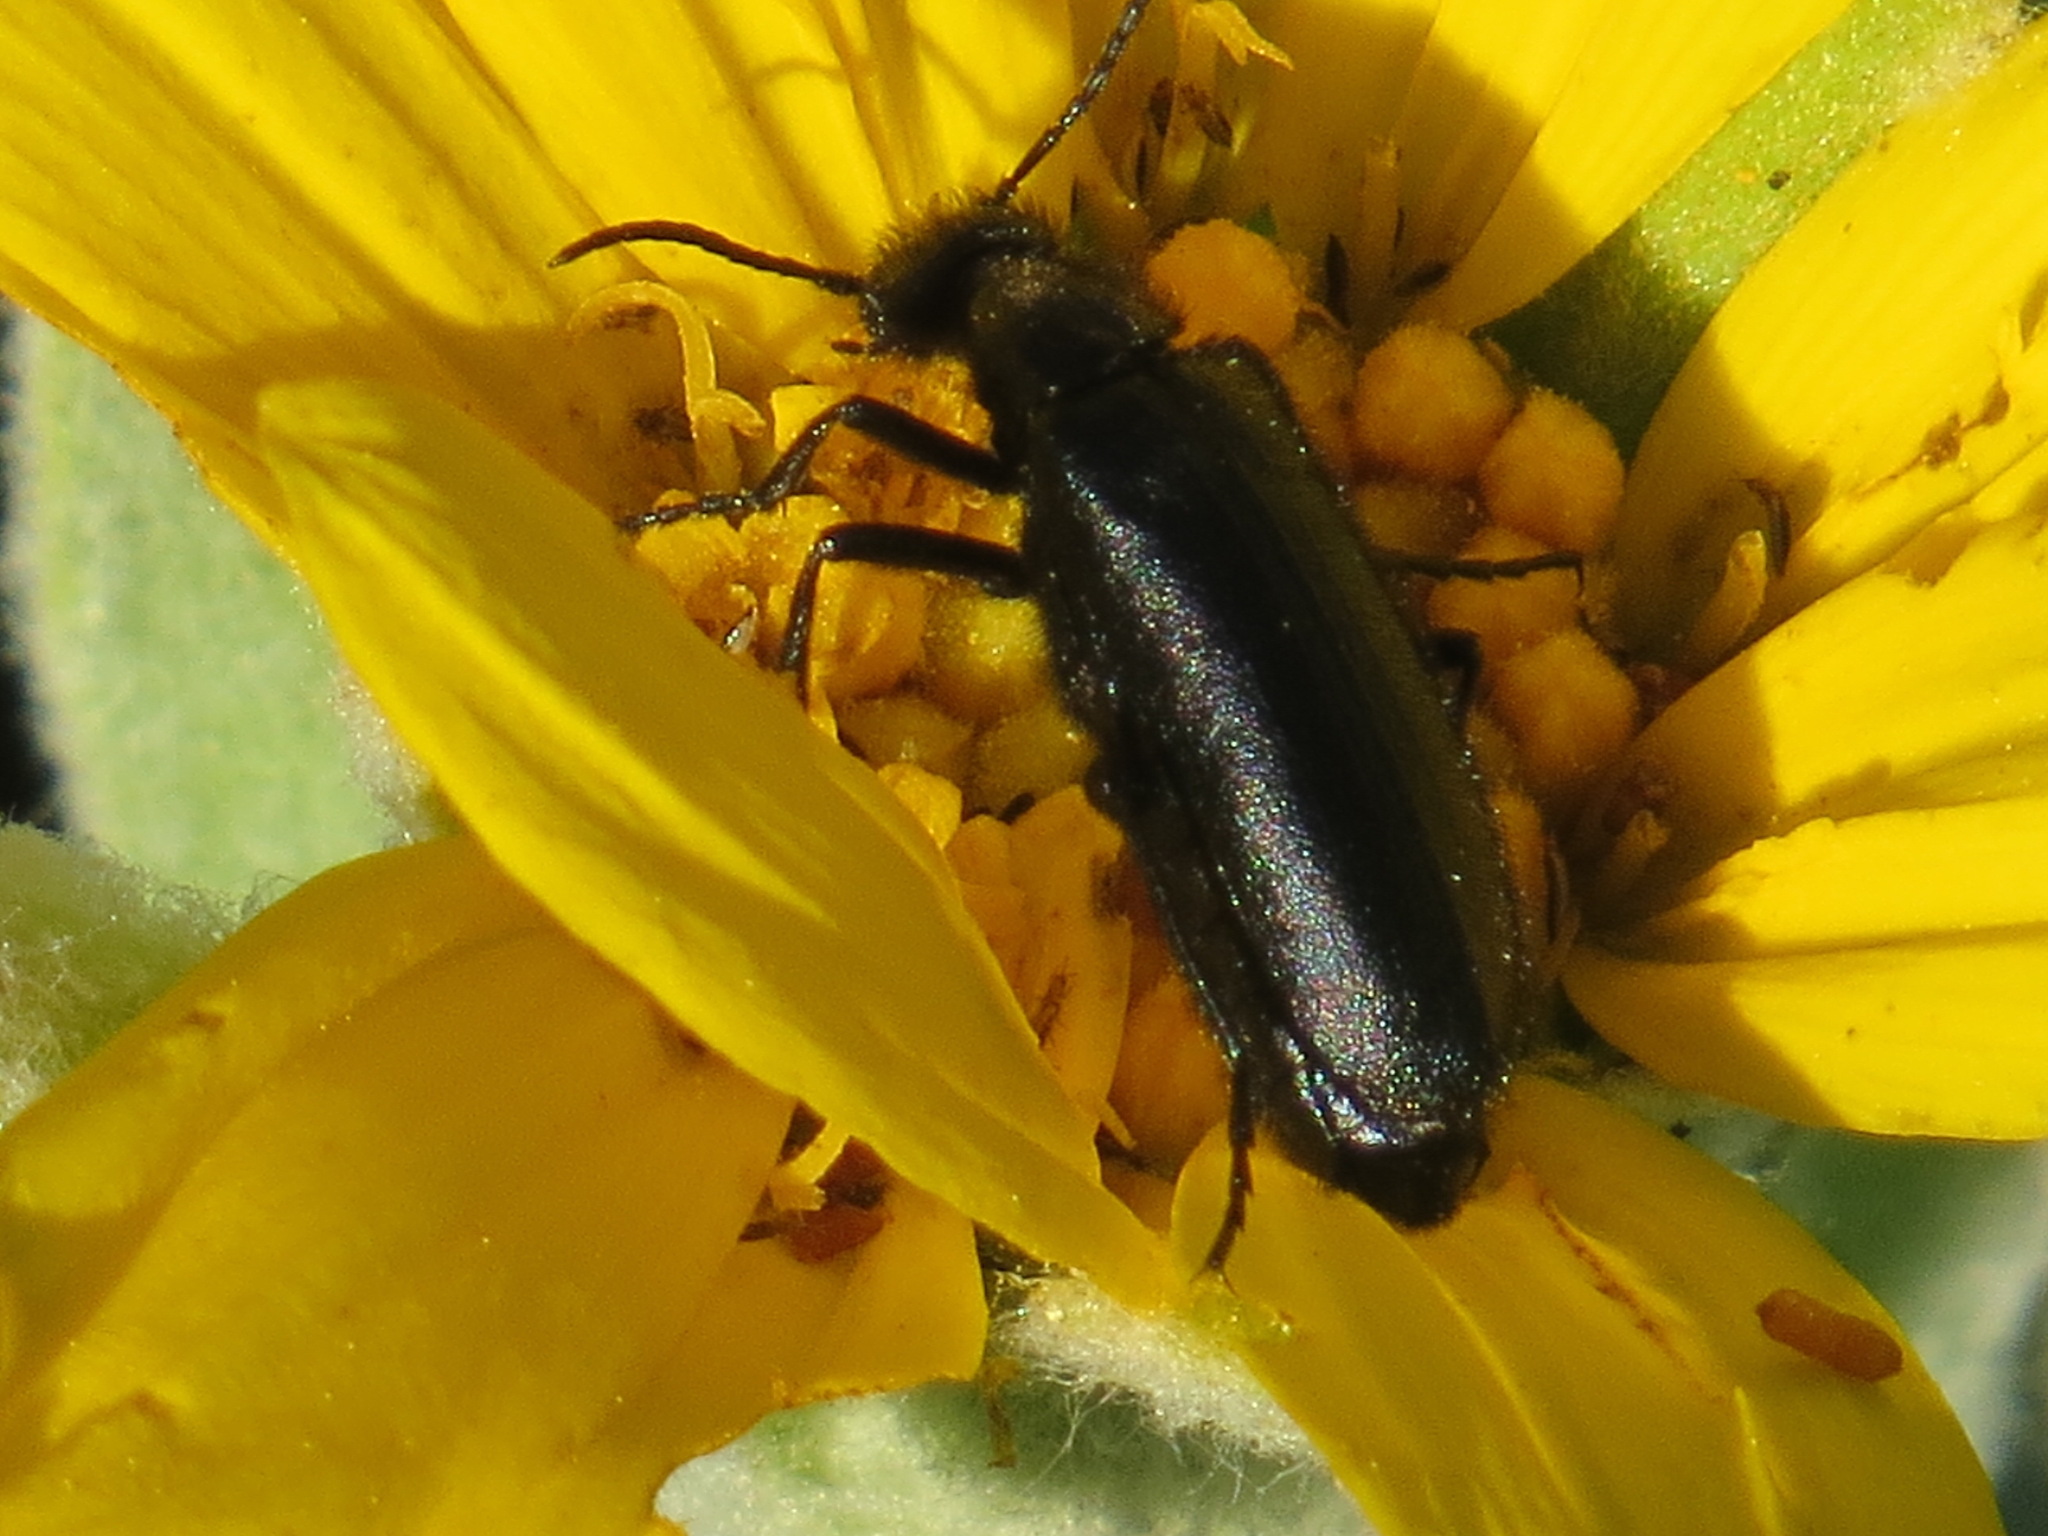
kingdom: Animalia
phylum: Arthropoda
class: Insecta
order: Coleoptera
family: Meloidae
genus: Epicauta
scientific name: Epicauta puncticollis
